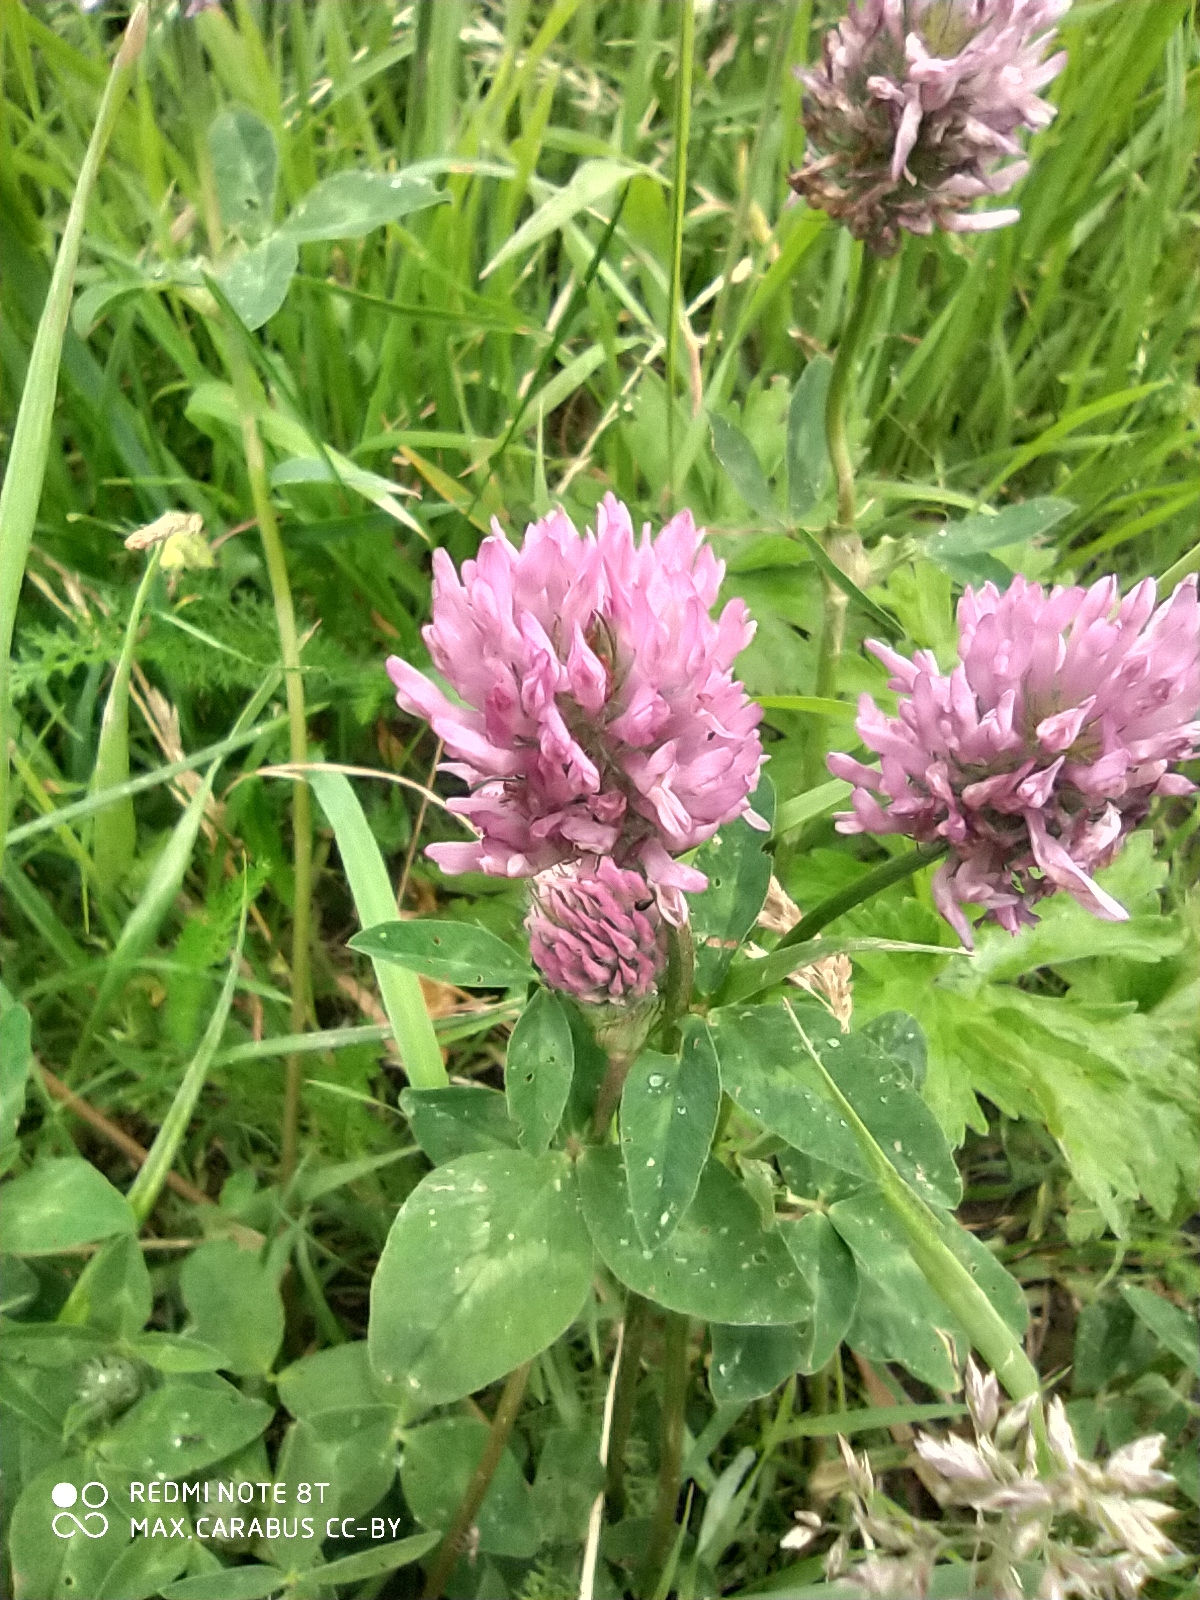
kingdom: Plantae
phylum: Tracheophyta
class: Magnoliopsida
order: Fabales
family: Fabaceae
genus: Trifolium
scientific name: Trifolium pratense
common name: Red clover
